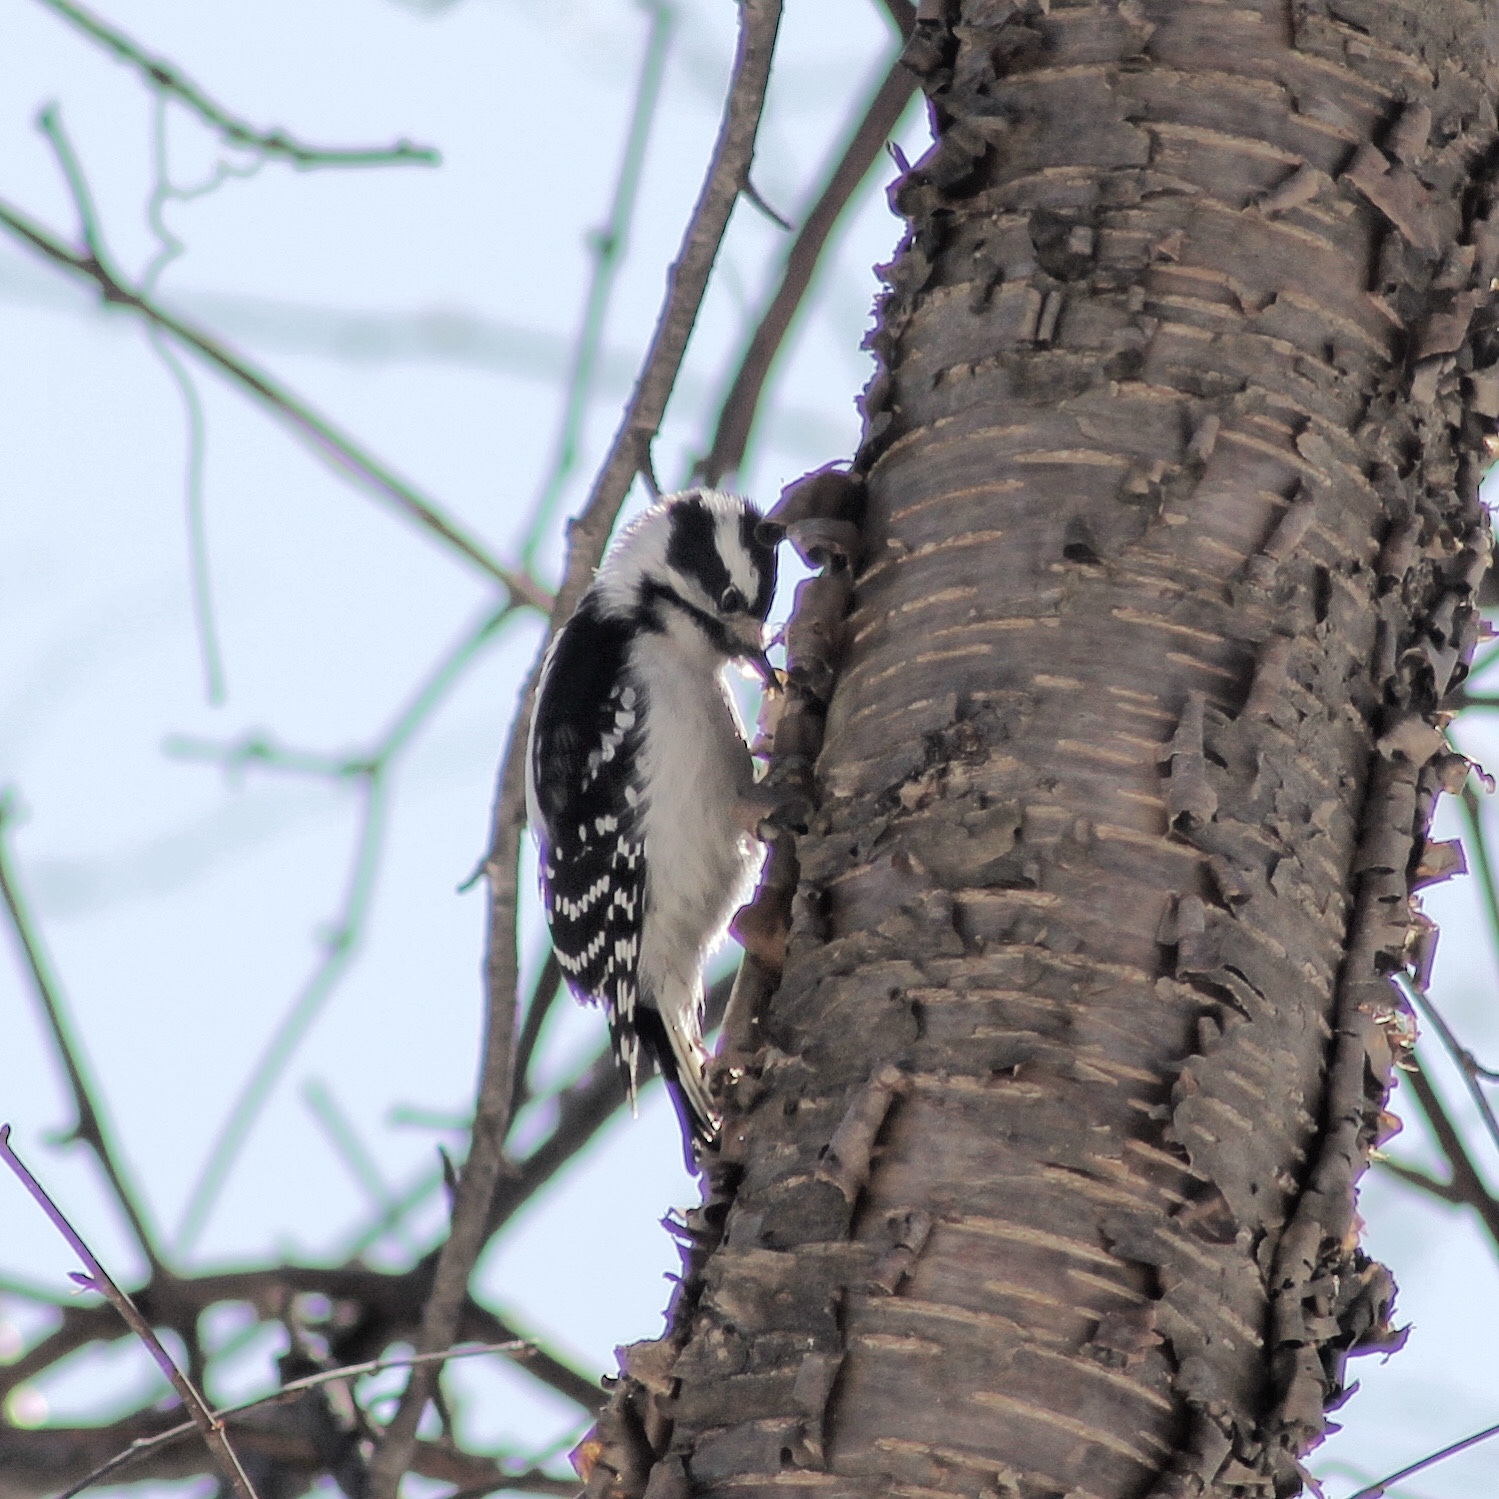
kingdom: Animalia
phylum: Chordata
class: Aves
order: Piciformes
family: Picidae
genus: Dryobates
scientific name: Dryobates pubescens
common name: Downy woodpecker
